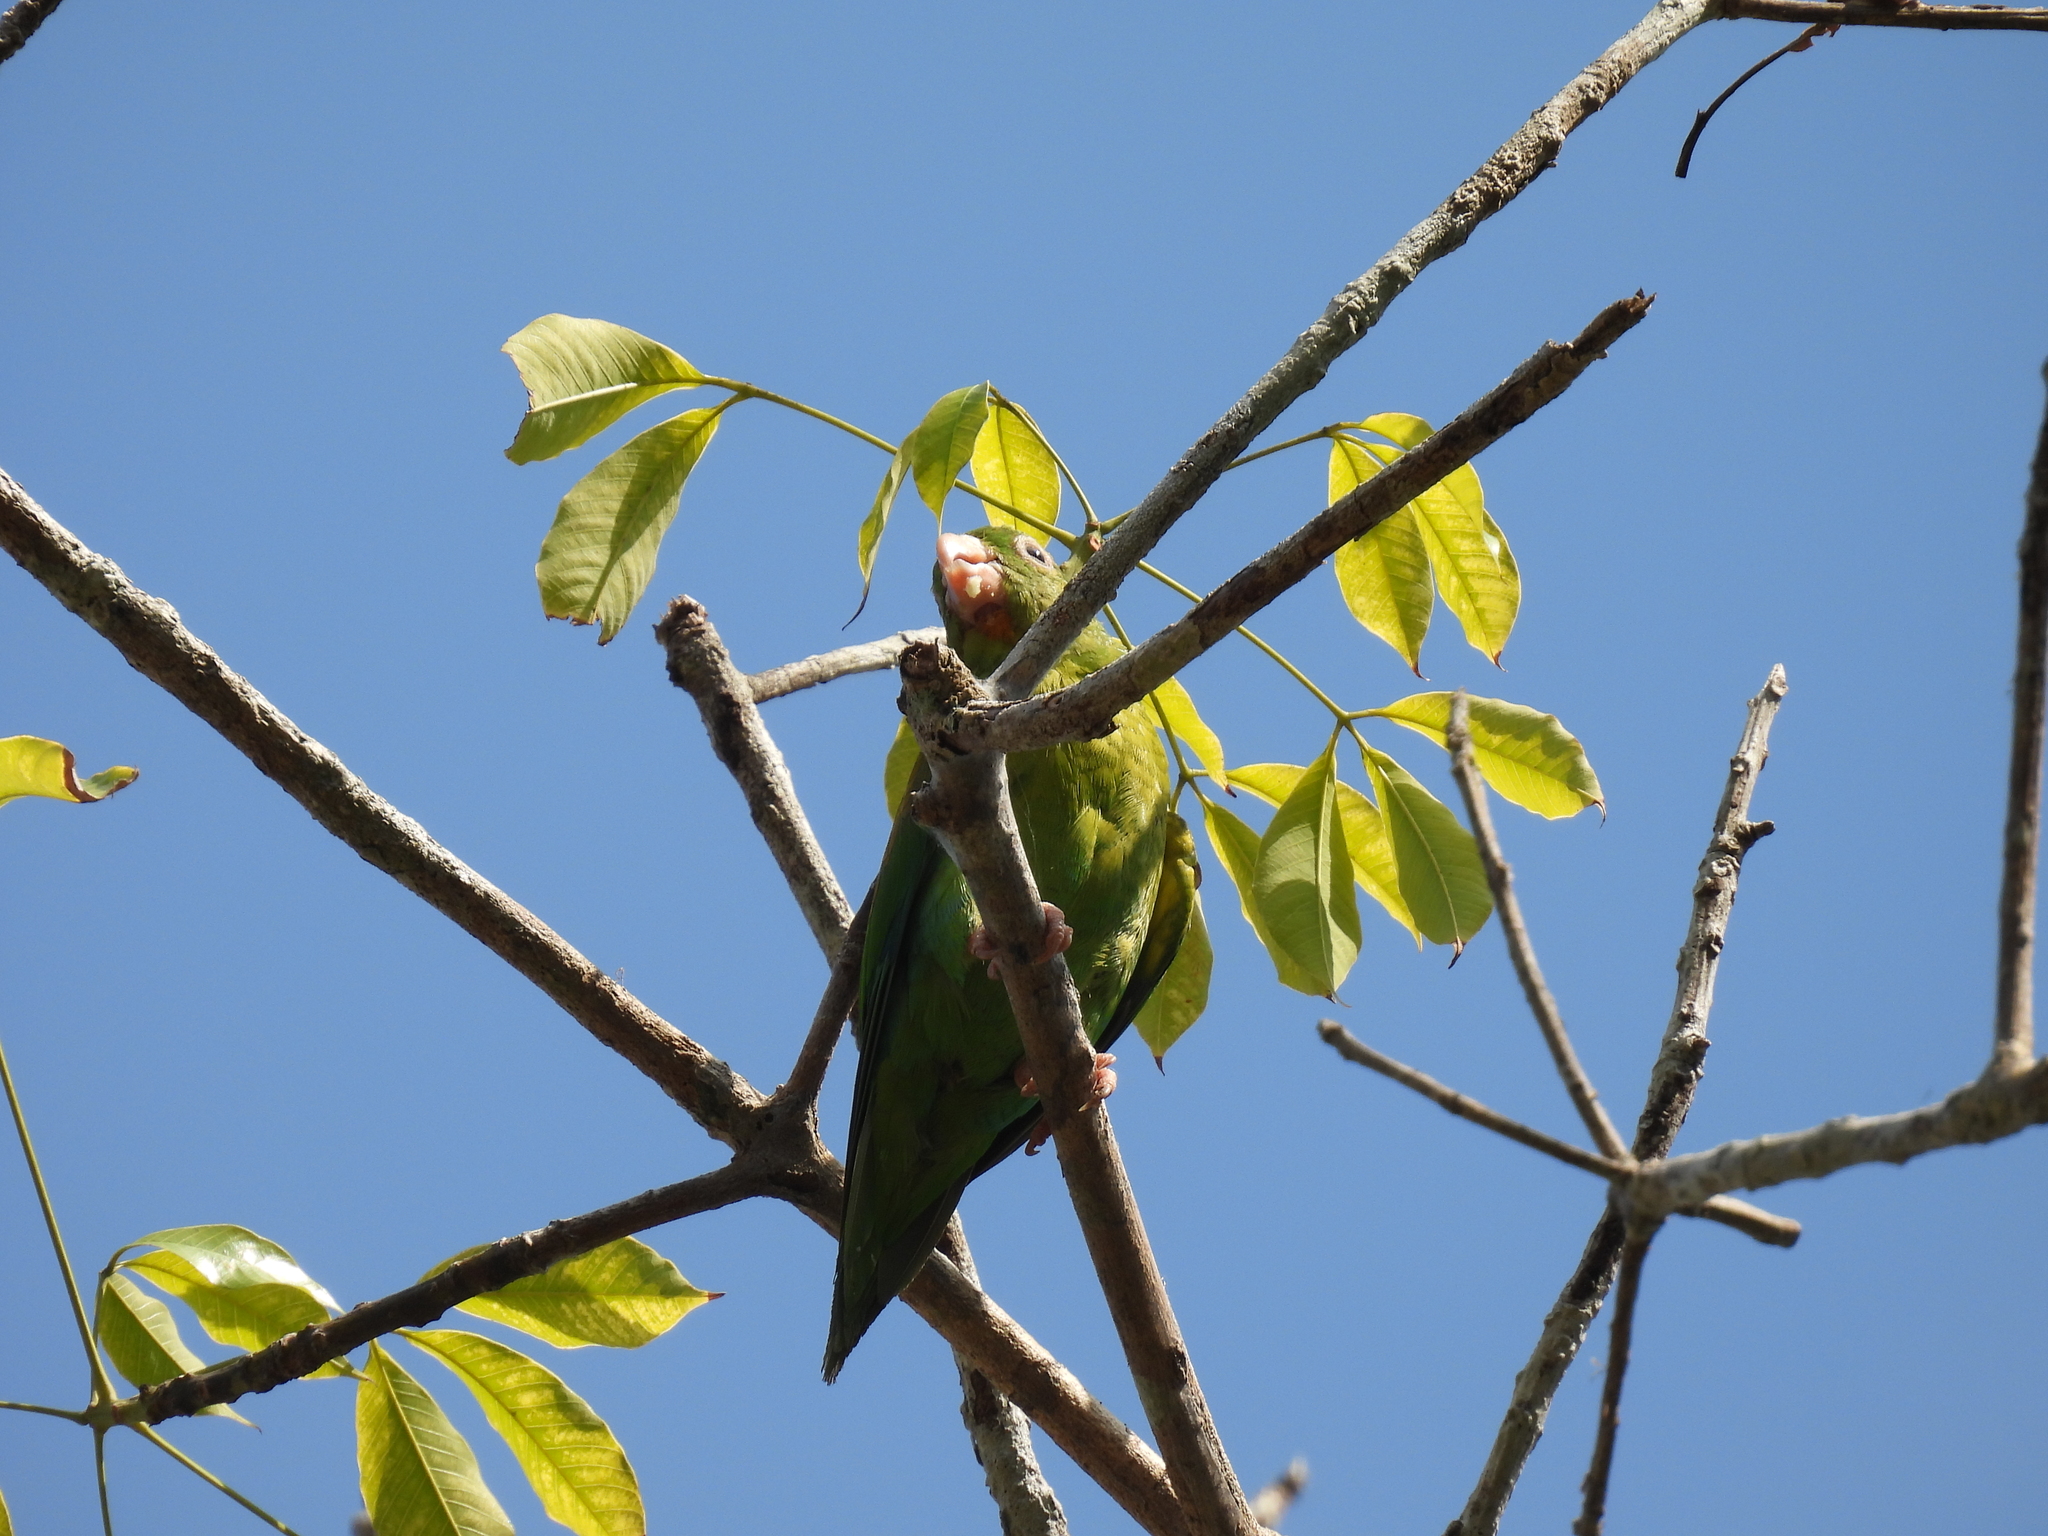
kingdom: Animalia
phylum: Chordata
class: Aves
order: Psittaciformes
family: Psittacidae
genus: Brotogeris
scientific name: Brotogeris jugularis
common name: Orange-chinned parakeet
